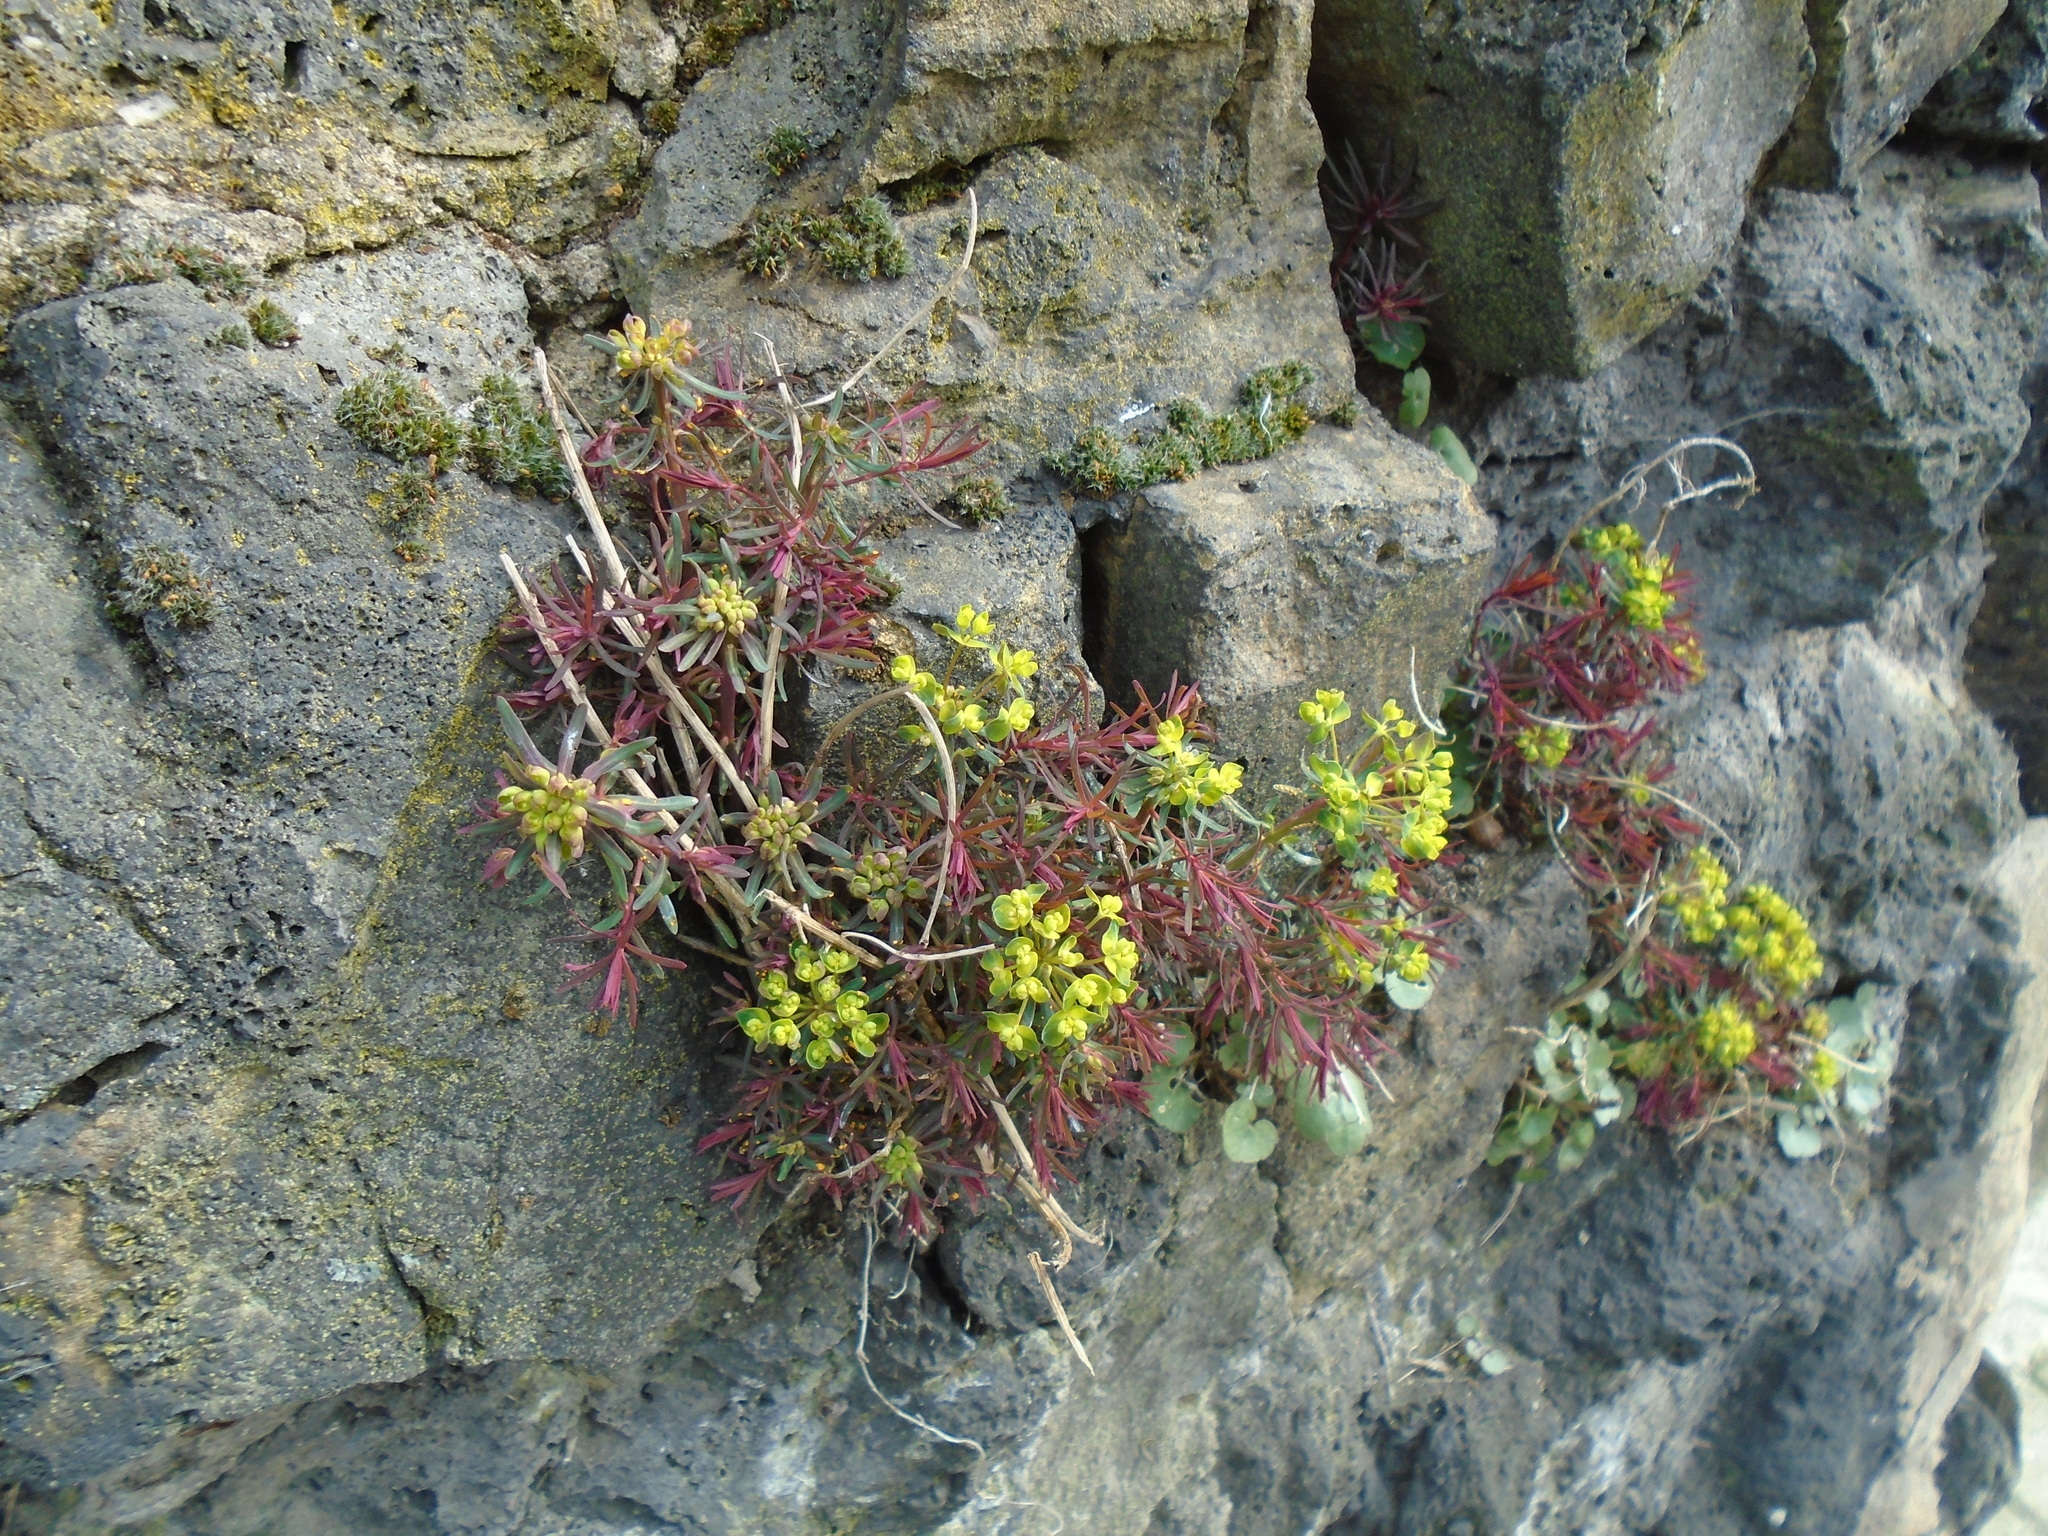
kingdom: Plantae
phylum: Tracheophyta
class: Magnoliopsida
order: Malpighiales
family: Euphorbiaceae
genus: Euphorbia
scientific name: Euphorbia cyparissias
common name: Cypress spurge
